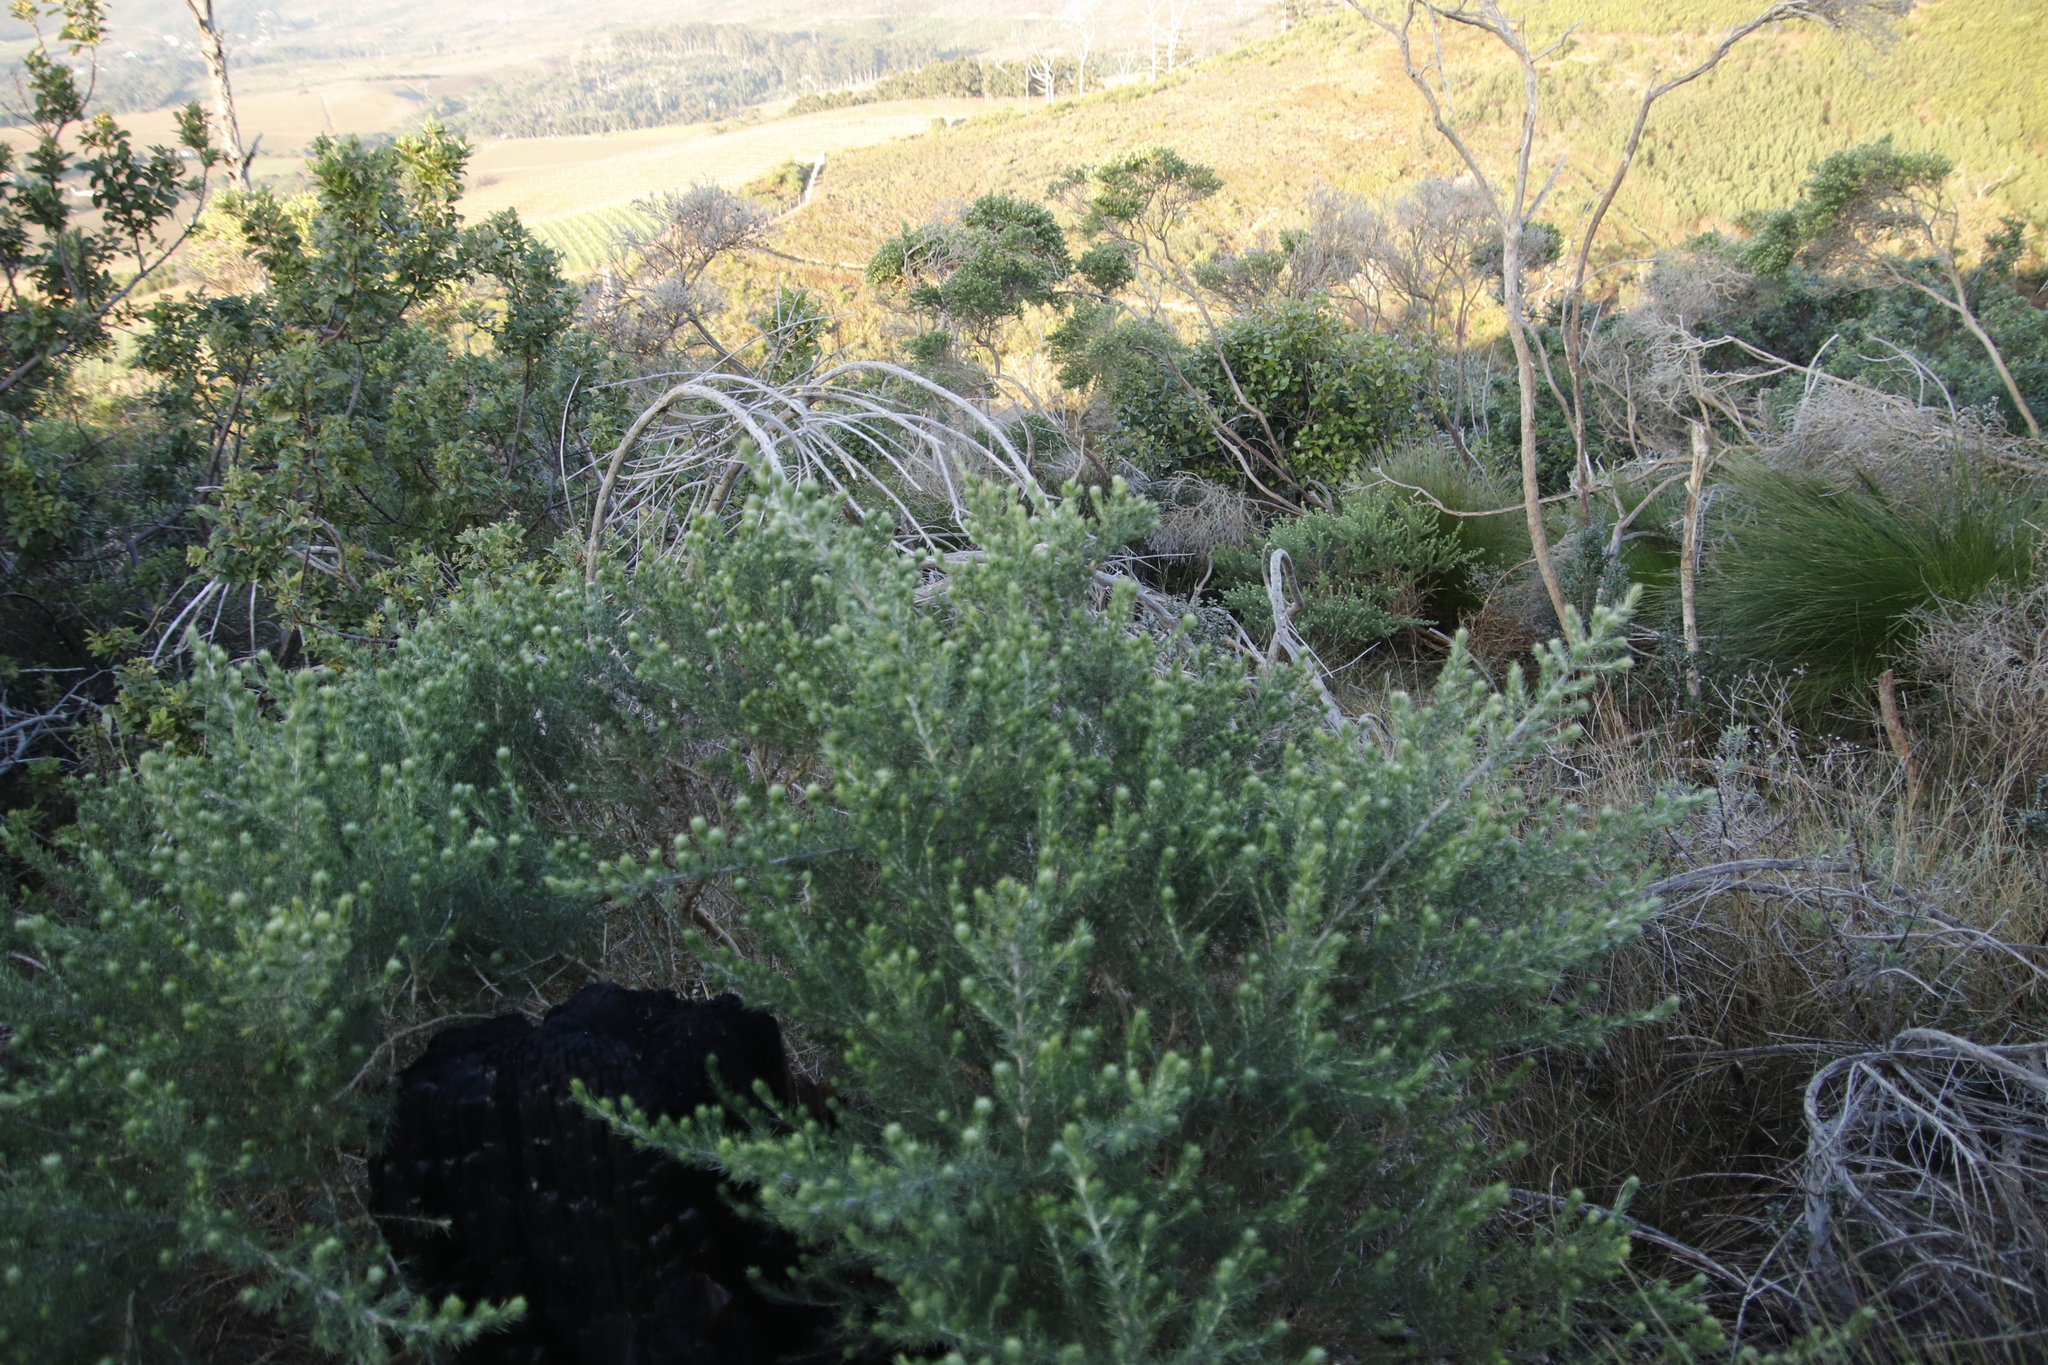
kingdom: Plantae
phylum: Tracheophyta
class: Magnoliopsida
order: Fabales
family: Fabaceae
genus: Aspalathus
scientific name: Aspalathus chenopoda
